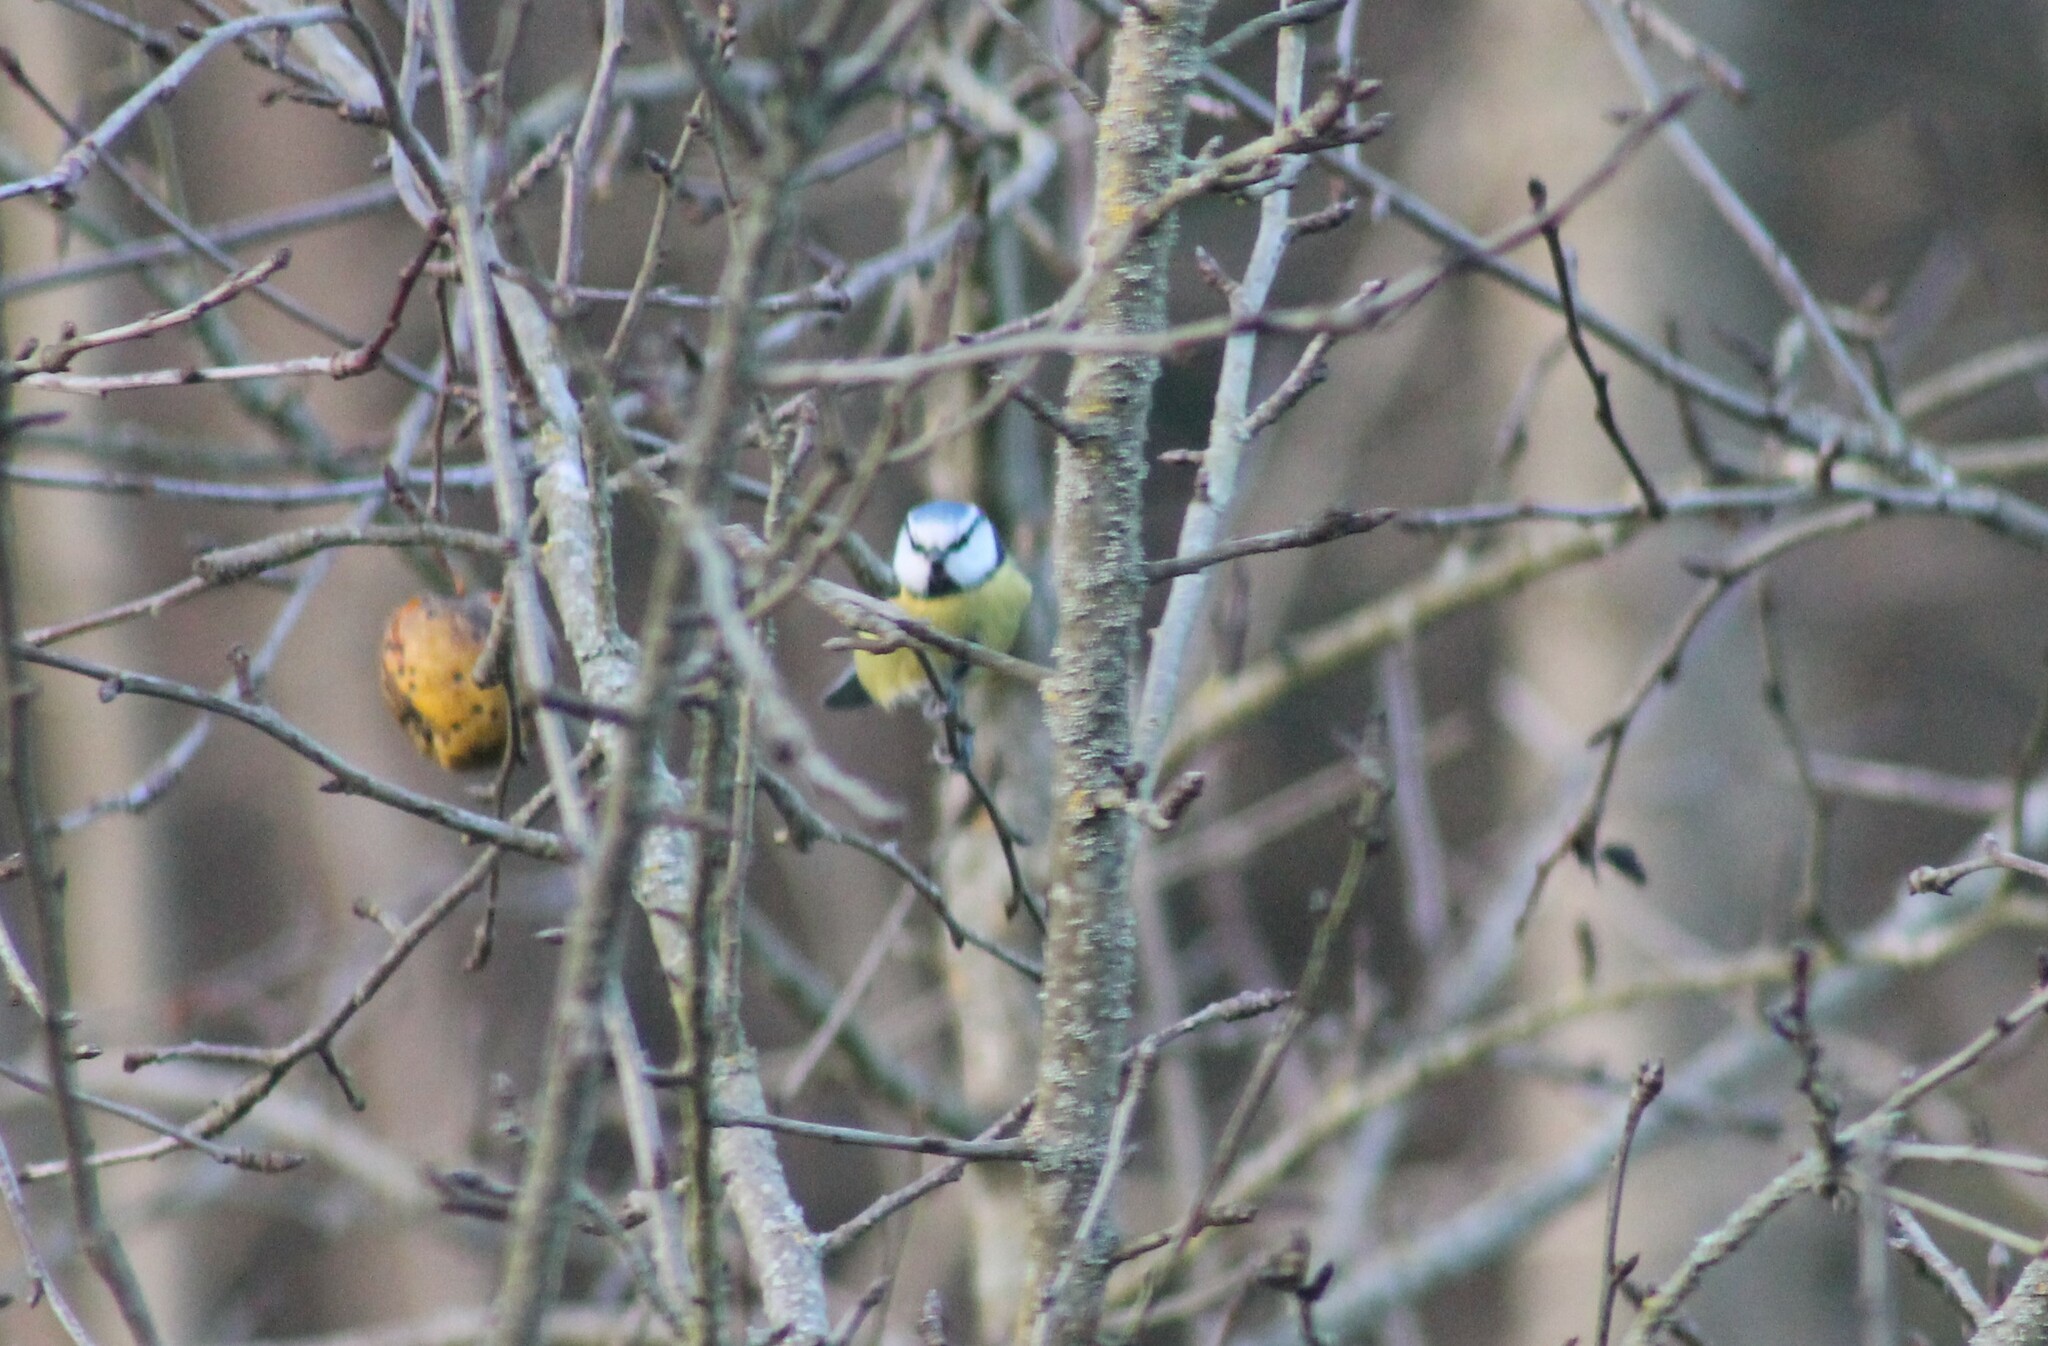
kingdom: Animalia
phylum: Chordata
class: Aves
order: Passeriformes
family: Paridae
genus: Cyanistes
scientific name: Cyanistes caeruleus
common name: Eurasian blue tit
